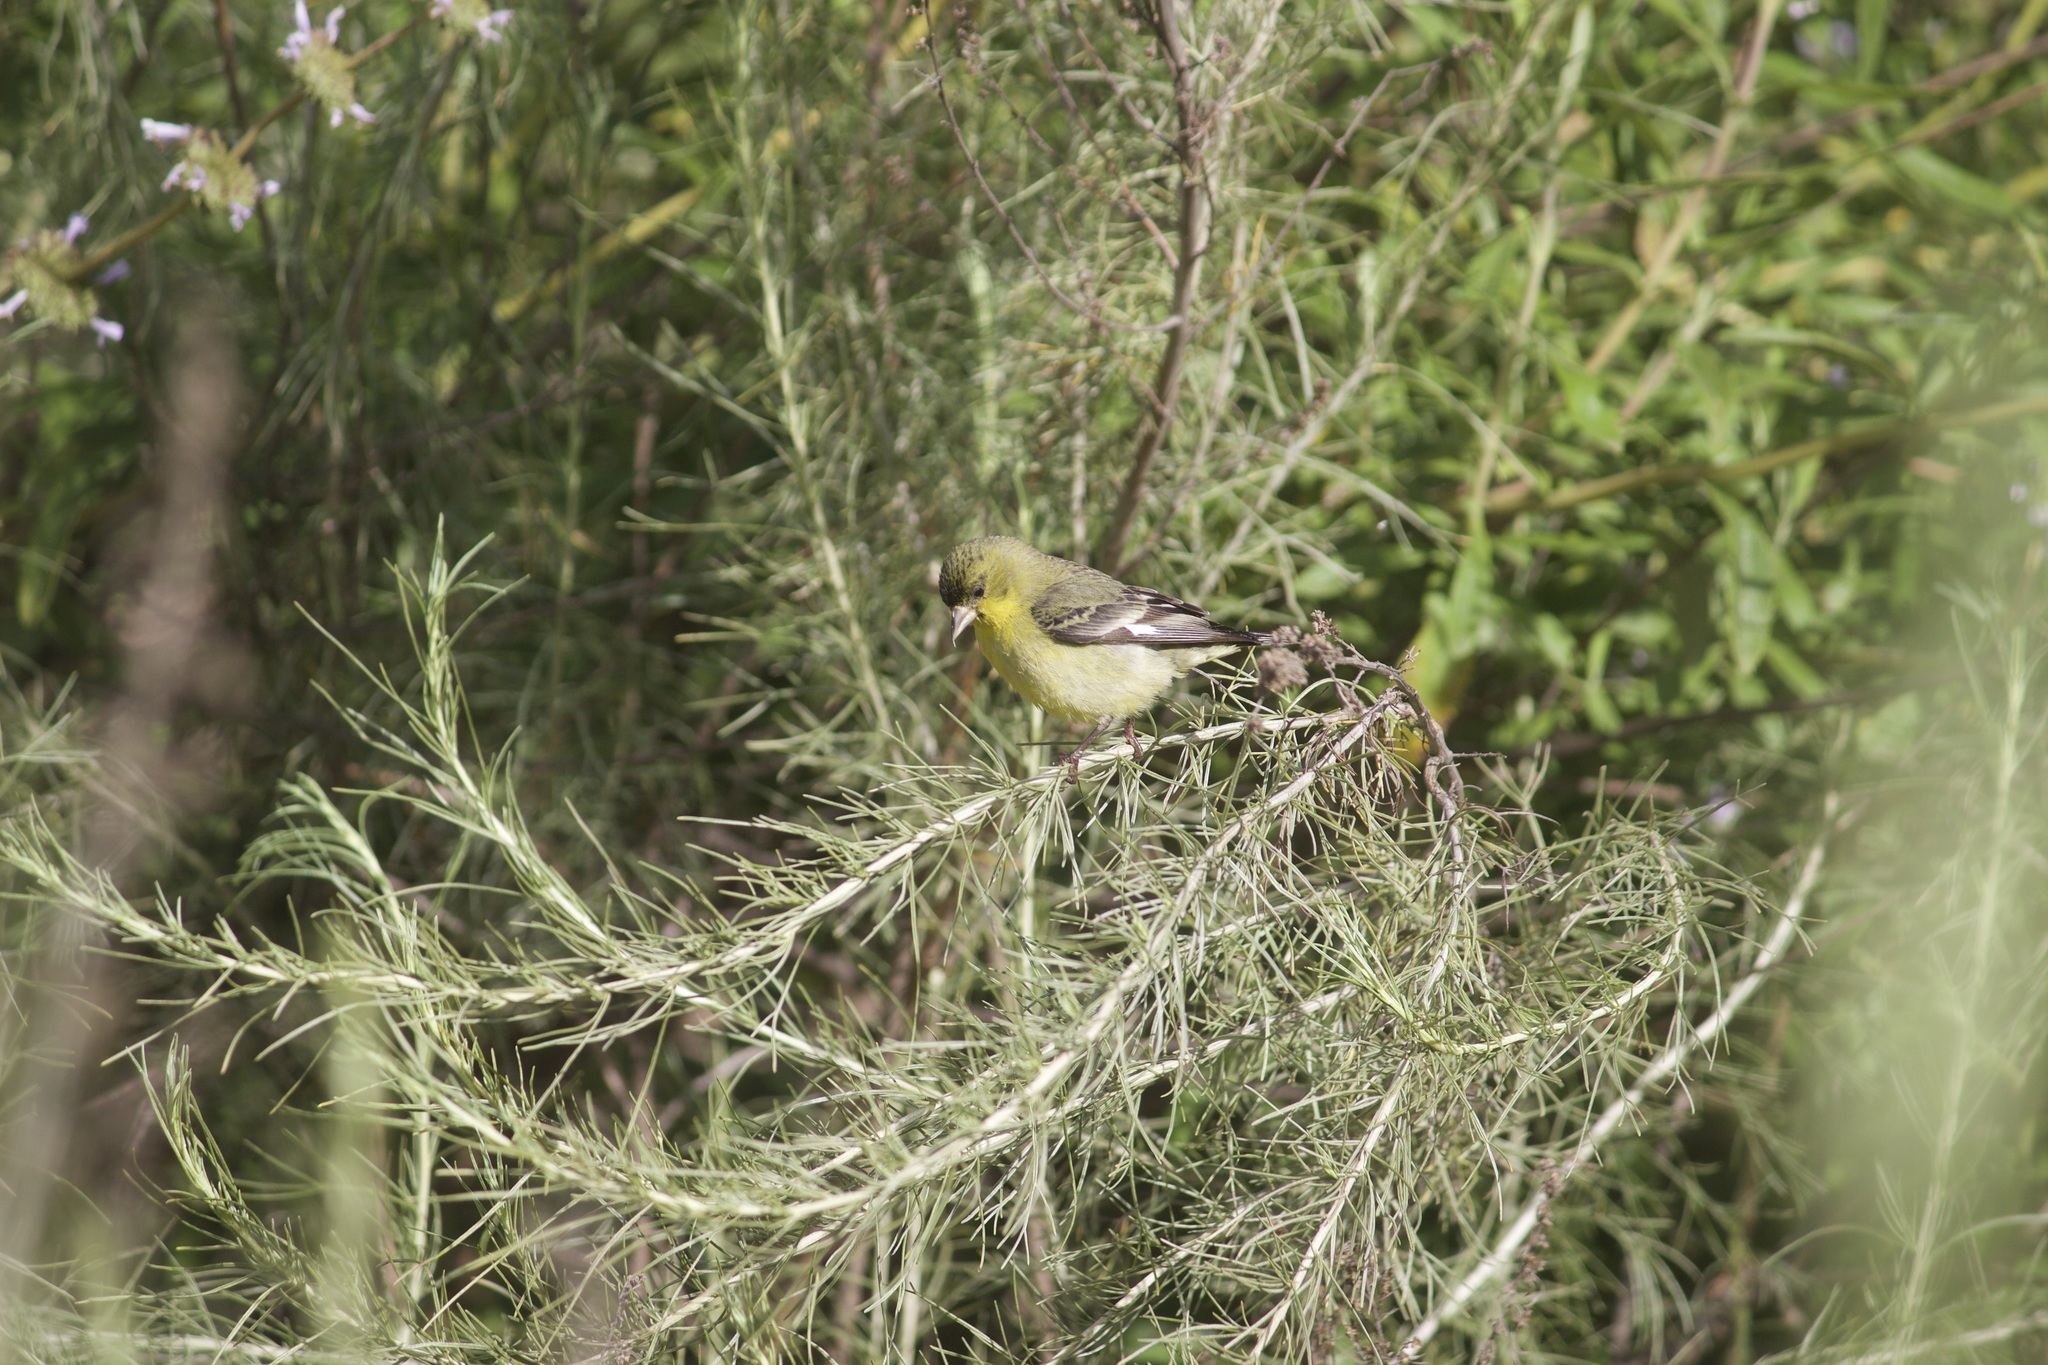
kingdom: Animalia
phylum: Chordata
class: Aves
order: Passeriformes
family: Fringillidae
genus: Spinus
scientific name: Spinus psaltria
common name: Lesser goldfinch
